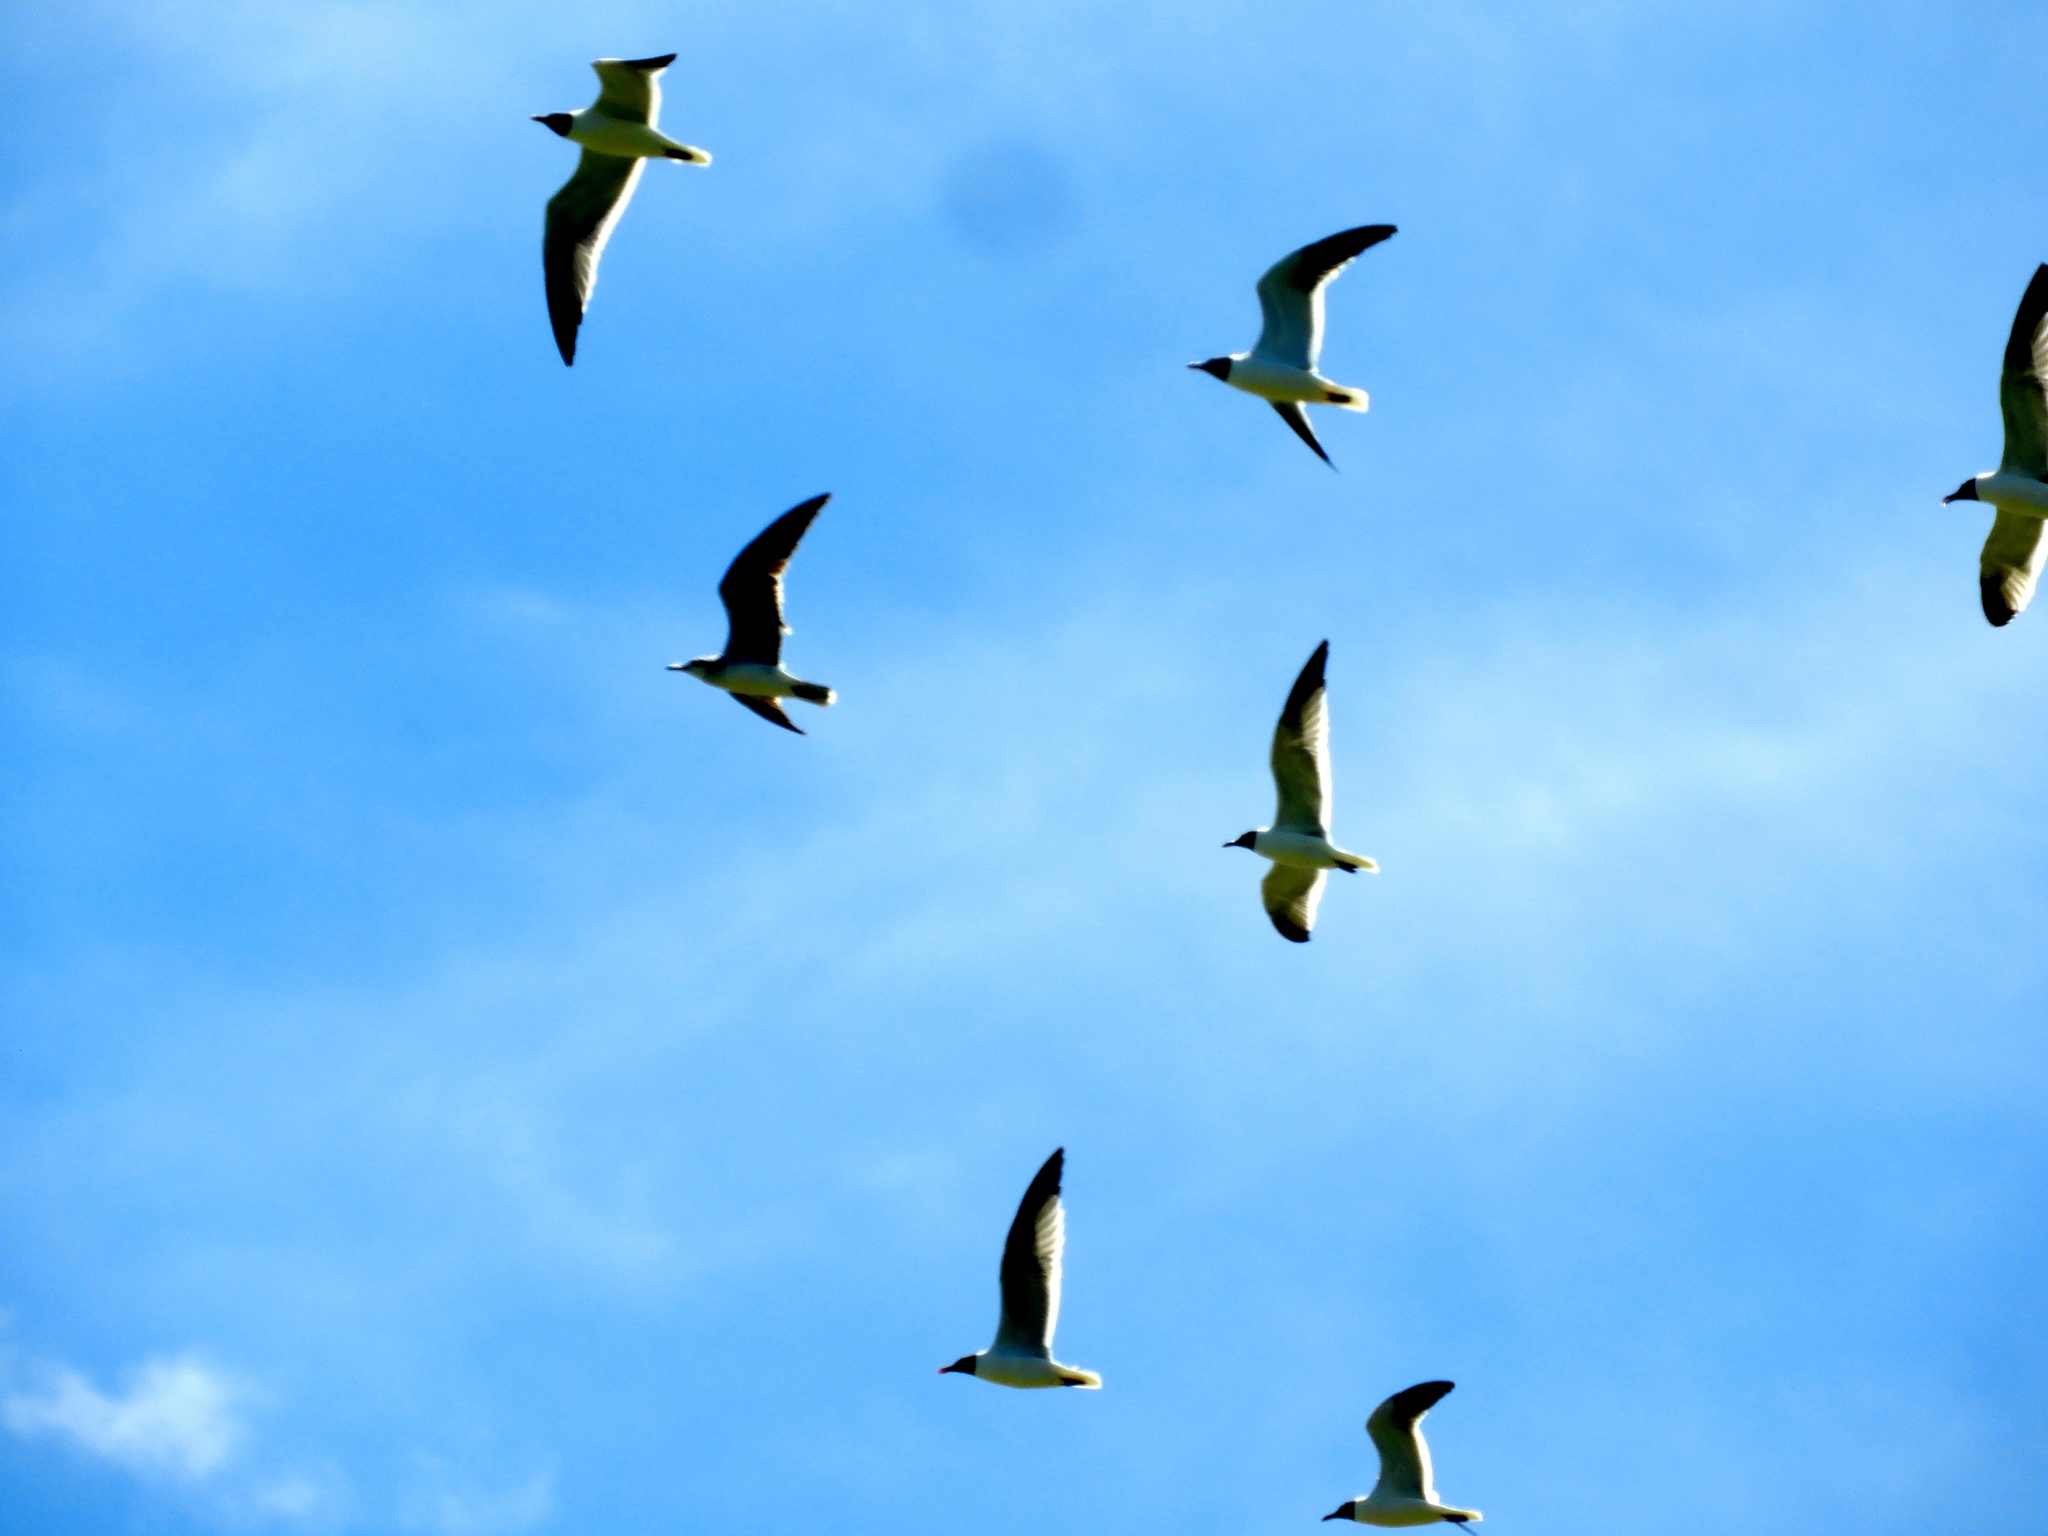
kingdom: Animalia
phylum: Chordata
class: Aves
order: Charadriiformes
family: Laridae
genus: Leucophaeus
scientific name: Leucophaeus atricilla
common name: Laughing gull
